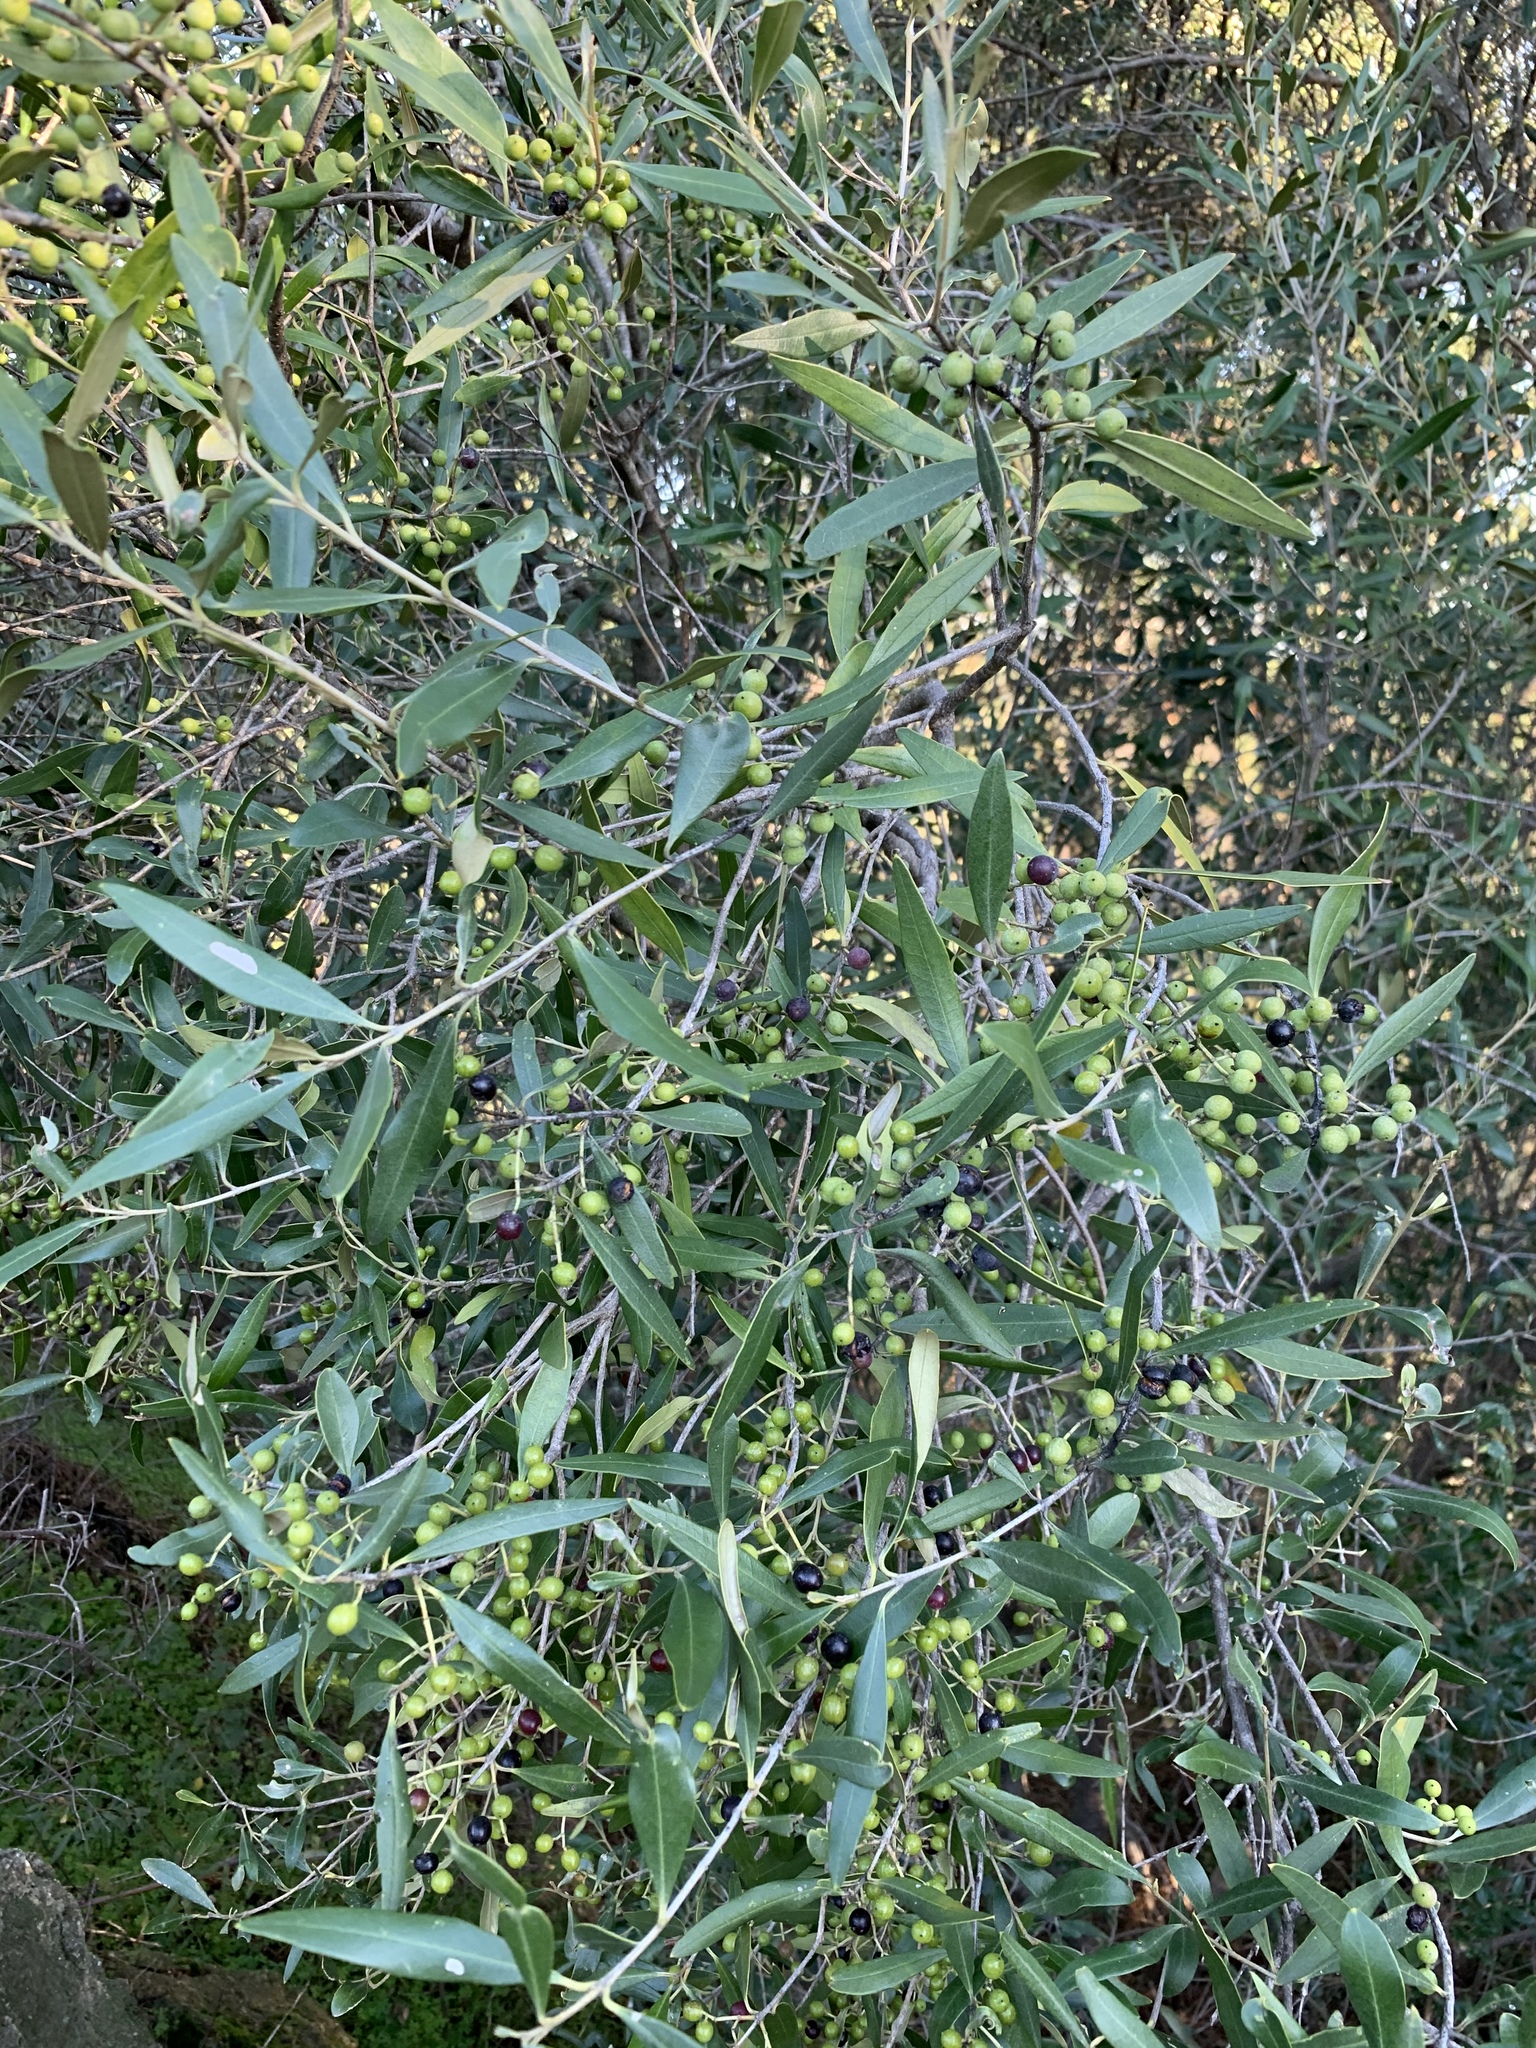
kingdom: Plantae
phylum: Tracheophyta
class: Magnoliopsida
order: Lamiales
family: Oleaceae
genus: Olea
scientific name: Olea europaea
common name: Olive
